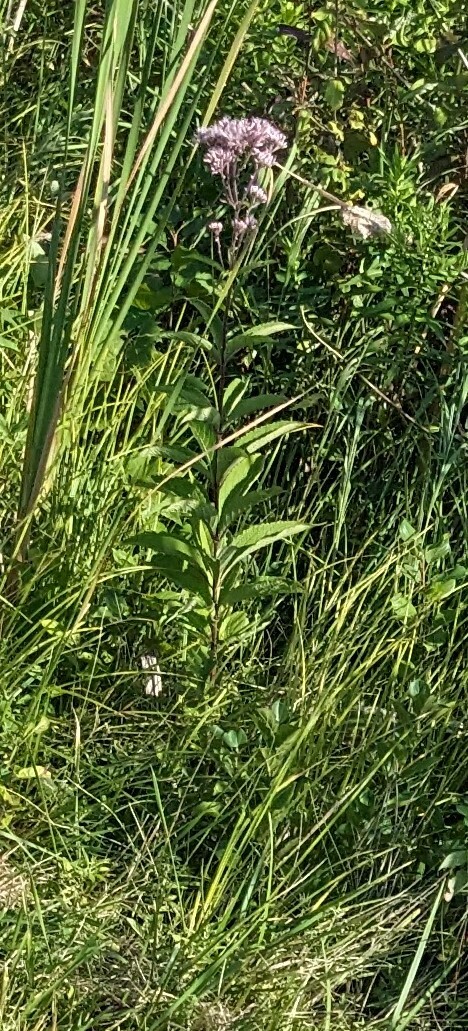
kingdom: Plantae
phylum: Tracheophyta
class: Magnoliopsida
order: Asterales
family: Asteraceae
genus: Eutrochium
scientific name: Eutrochium maculatum
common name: Spotted joe pye weed
